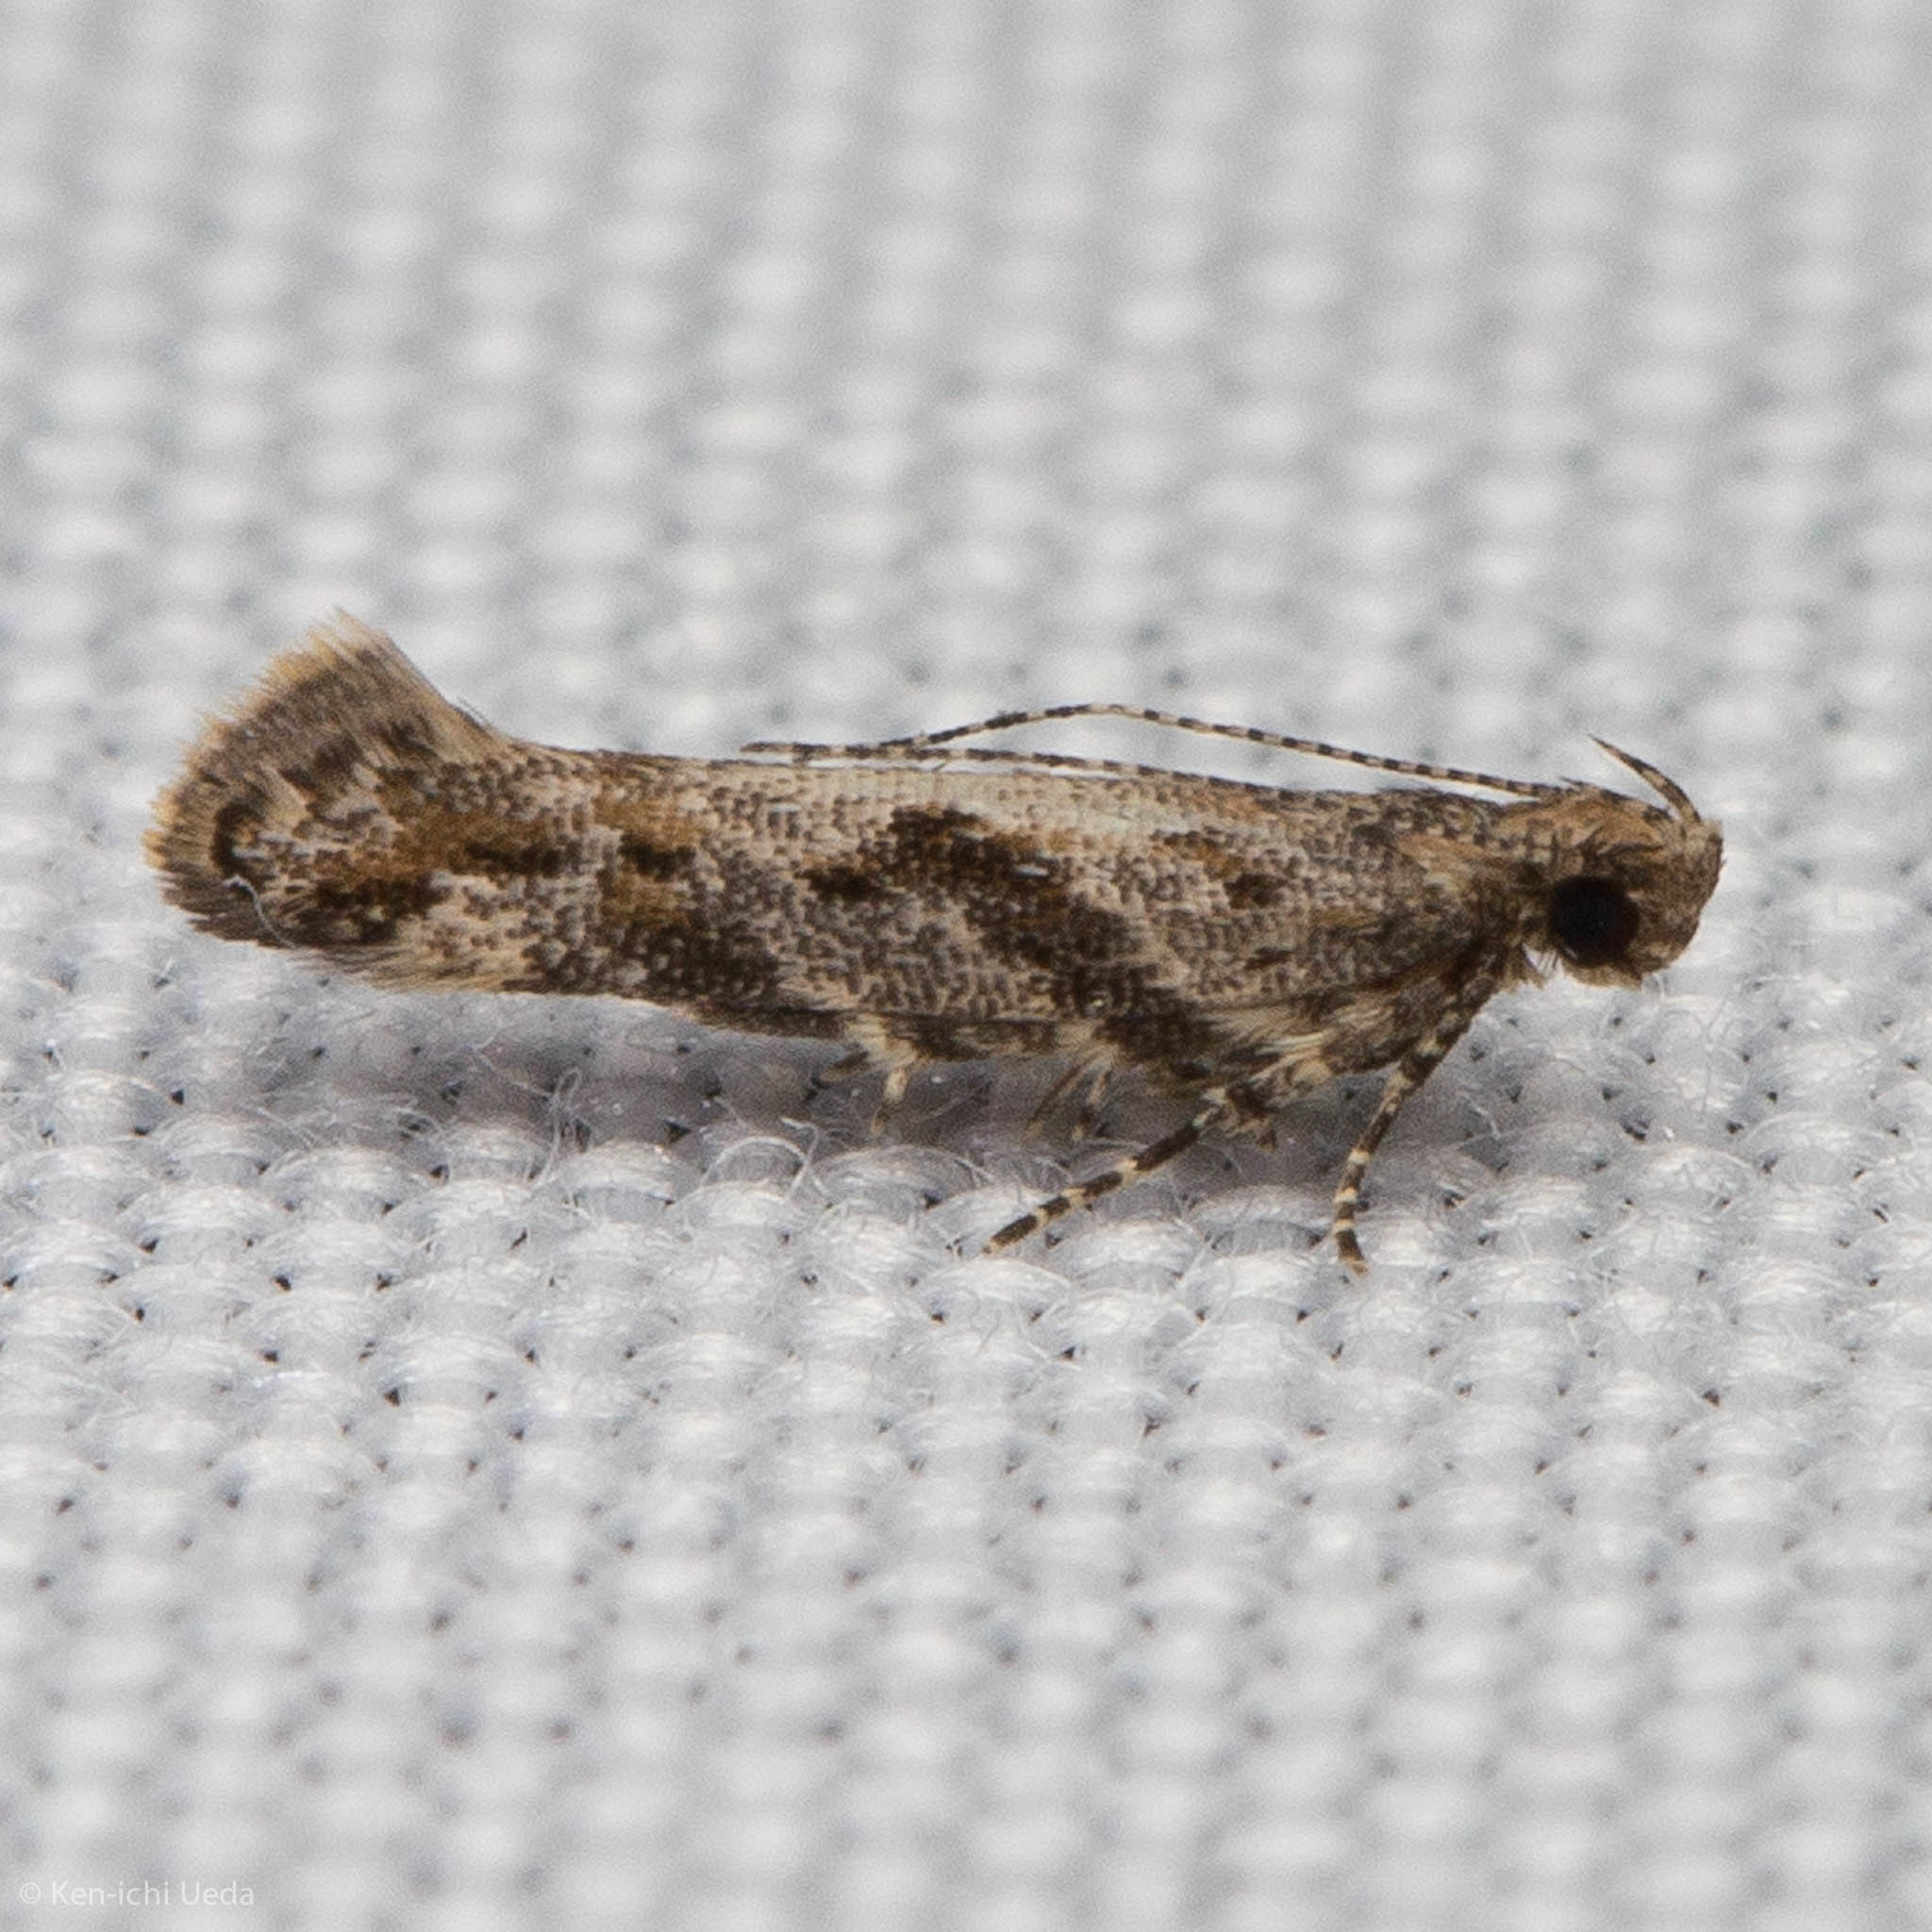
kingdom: Animalia
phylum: Arthropoda
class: Insecta
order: Lepidoptera
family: Gelechiidae
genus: Aristotelia
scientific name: Aristotelia rubidella
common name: Ruby aristotelia moth
